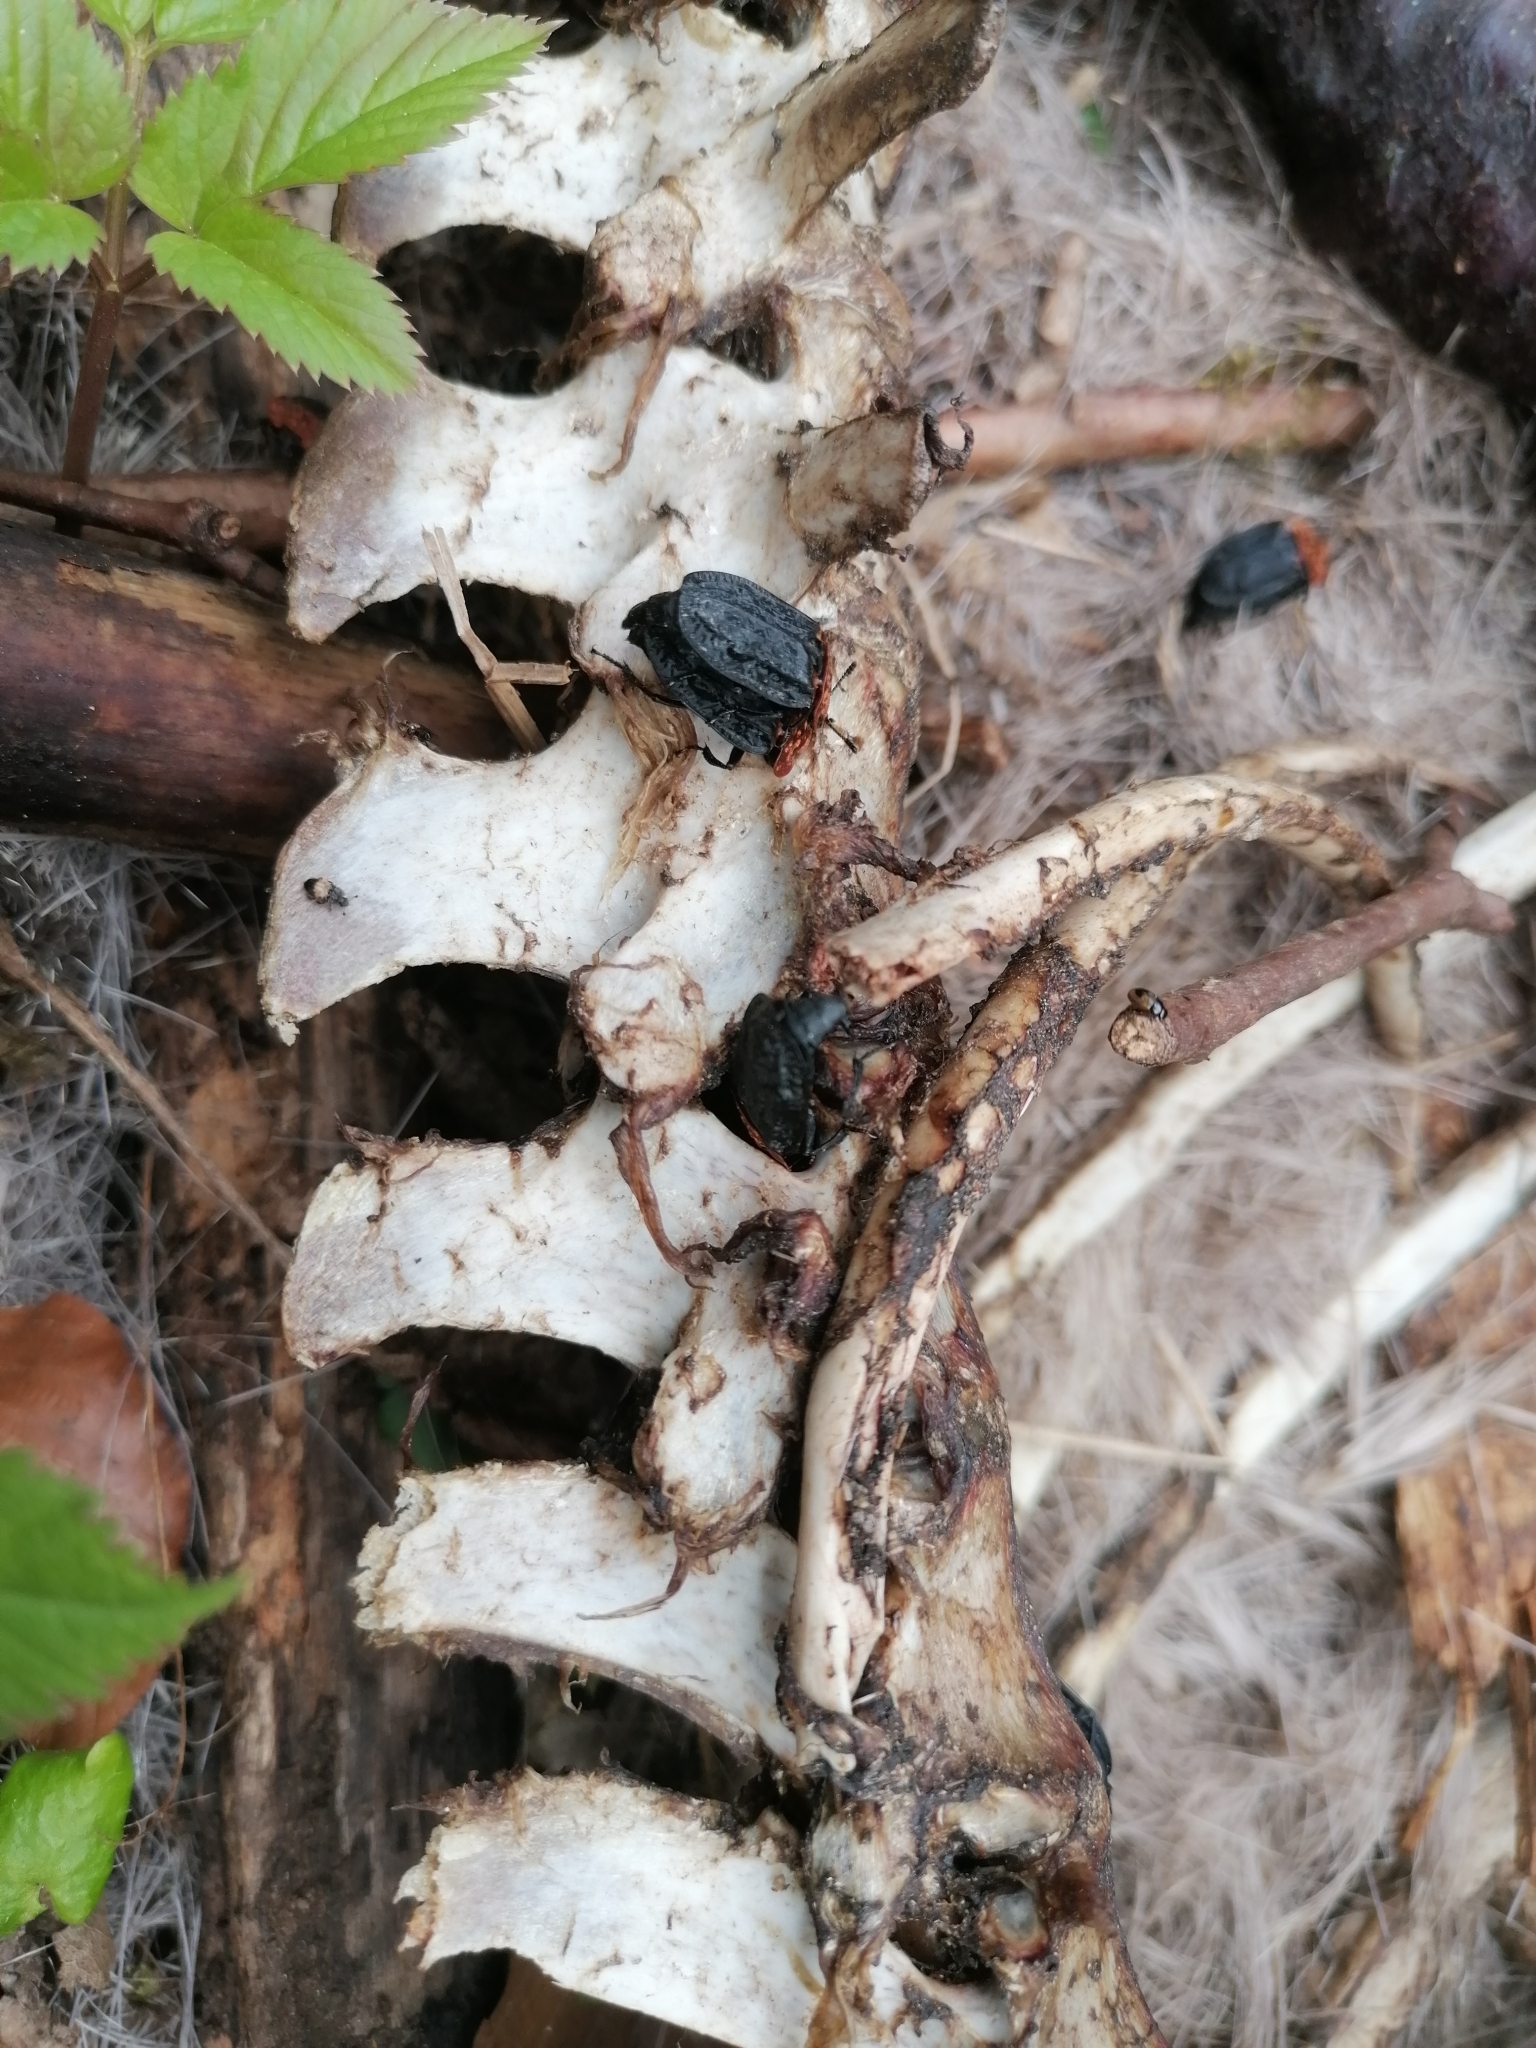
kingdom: Animalia
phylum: Arthropoda
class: Insecta
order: Coleoptera
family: Staphylinidae
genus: Oiceoptoma
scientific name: Oiceoptoma thoracicum
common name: Red-breasted carrion beetle
